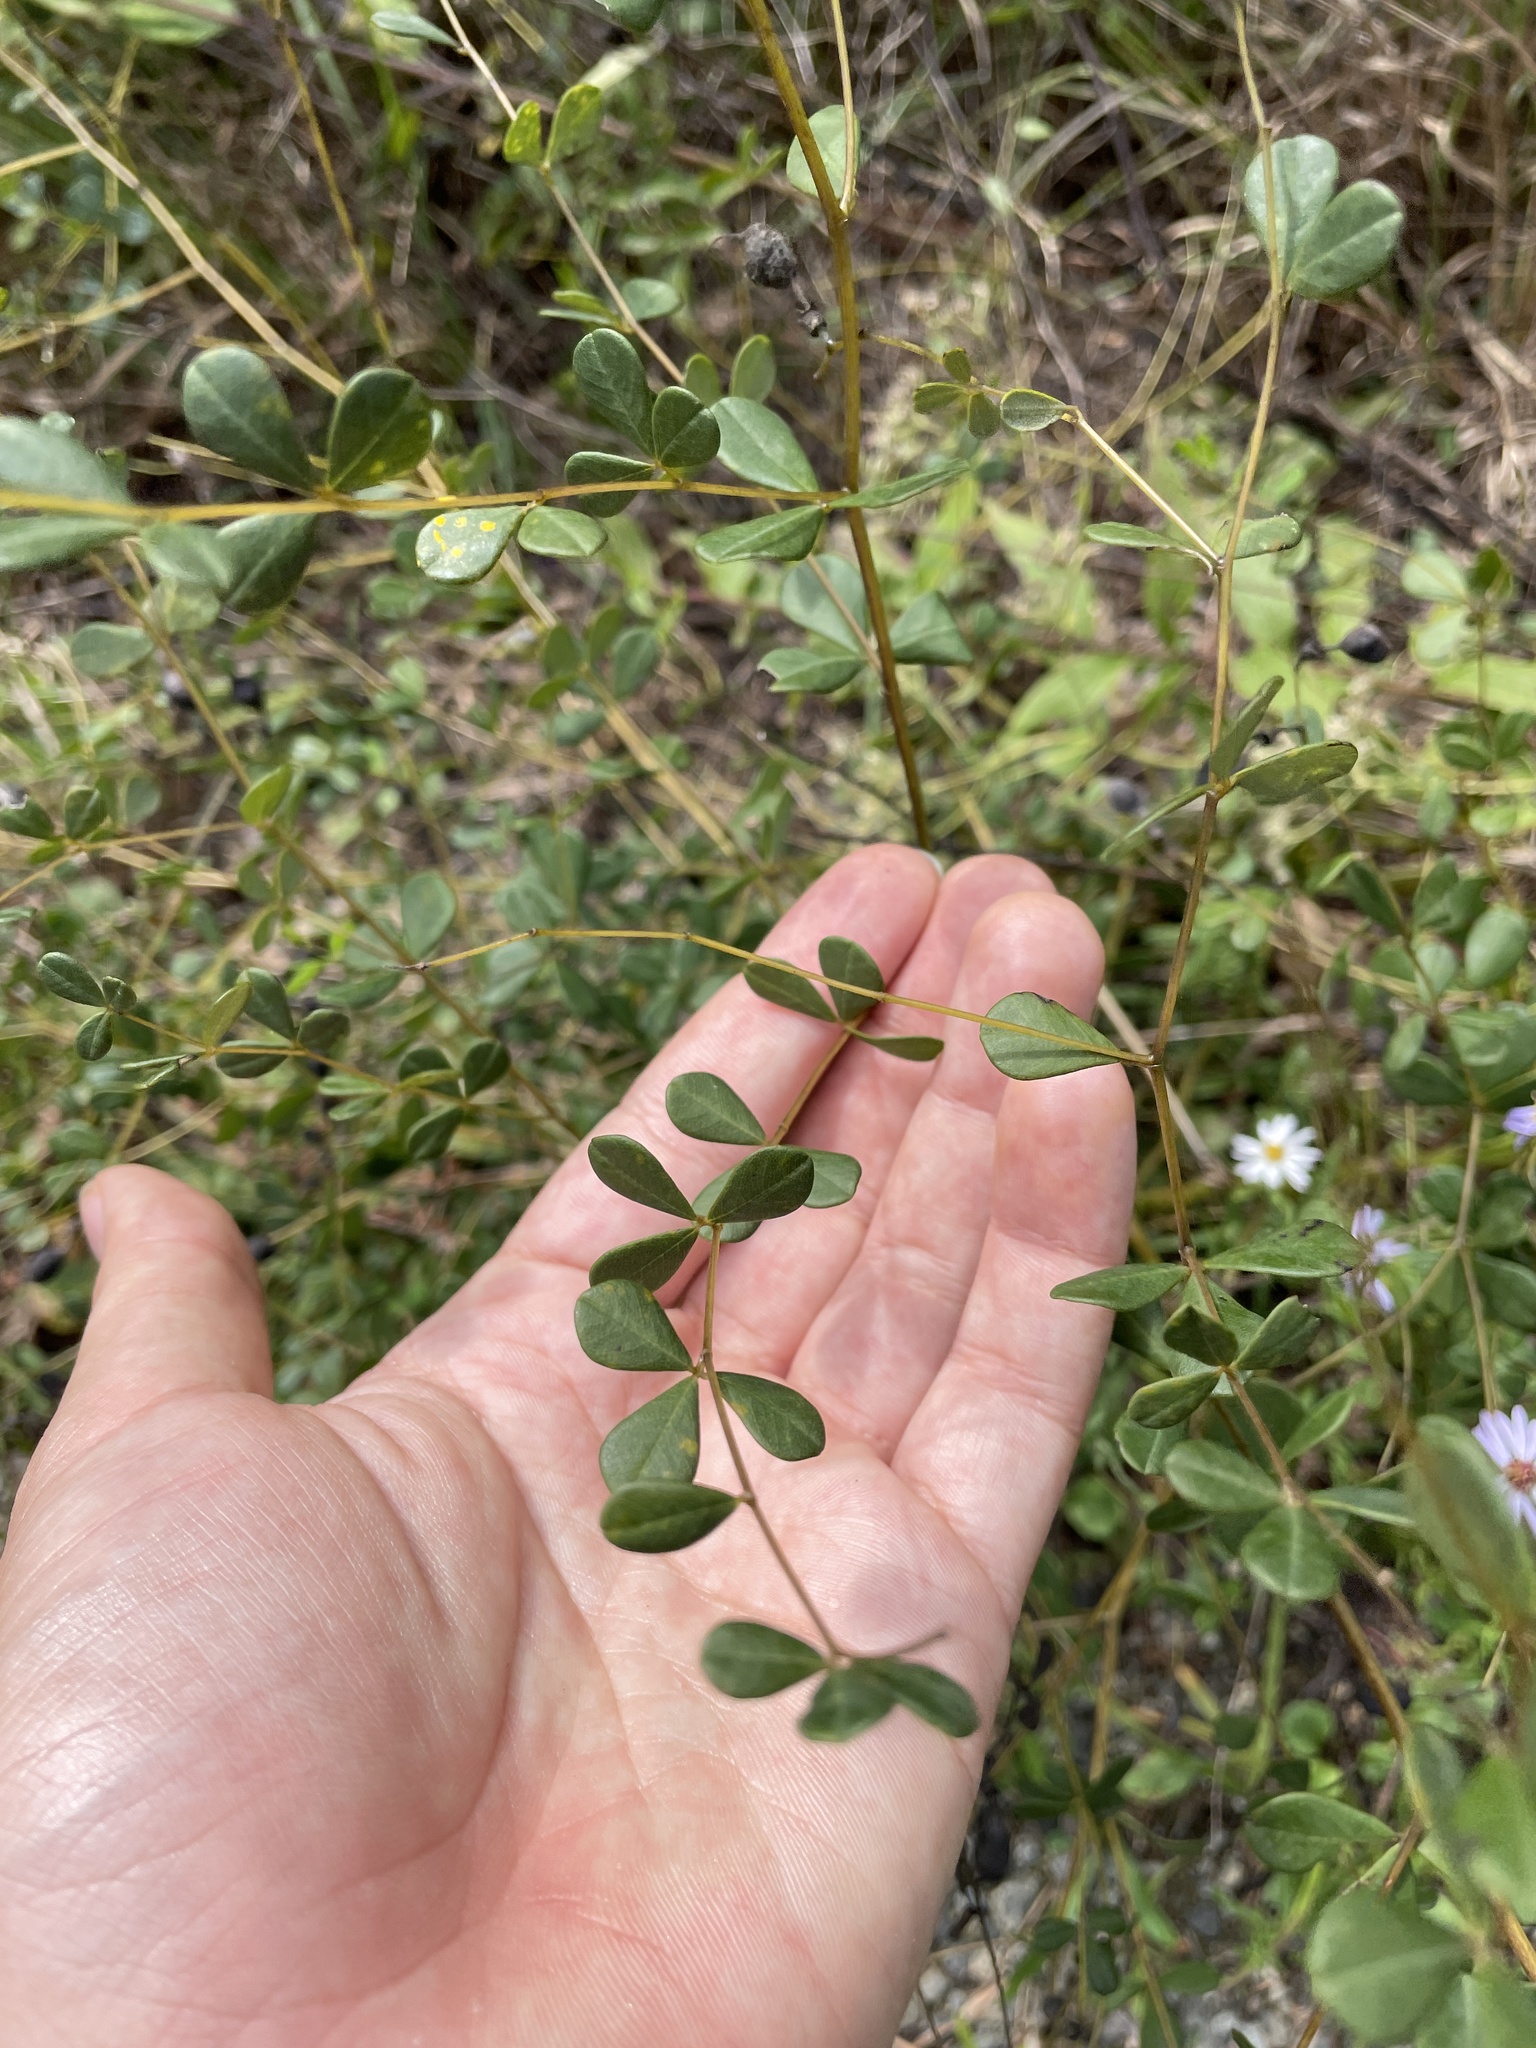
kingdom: Plantae
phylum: Tracheophyta
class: Magnoliopsida
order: Fabales
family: Fabaceae
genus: Baptisia
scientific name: Baptisia tinctoria
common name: Wild indigo
